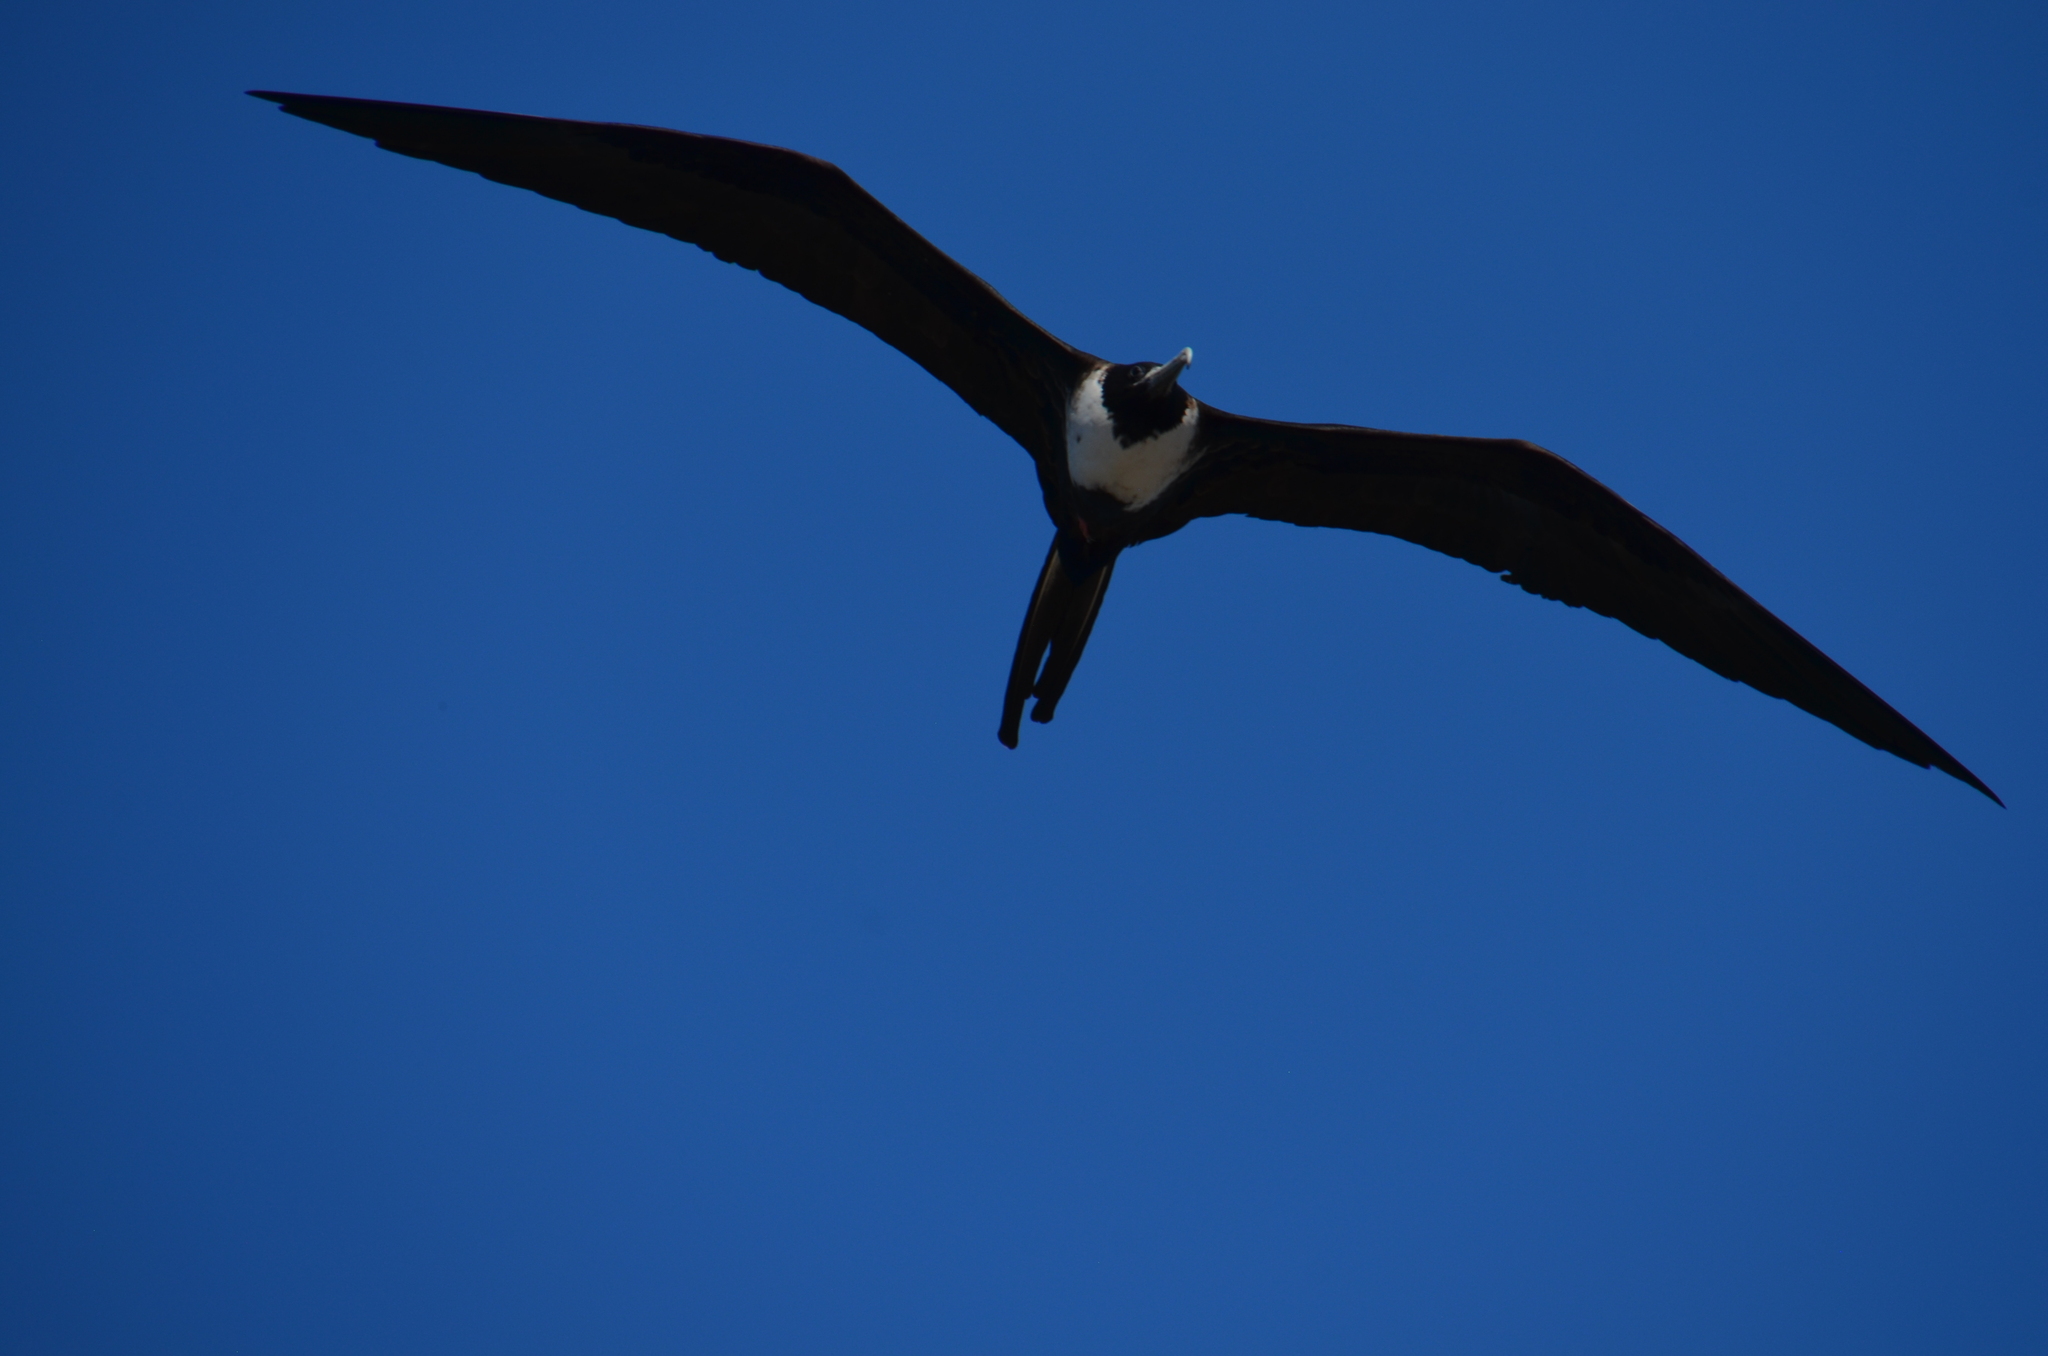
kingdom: Animalia
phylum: Chordata
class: Aves
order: Suliformes
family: Fregatidae
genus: Fregata
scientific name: Fregata magnificens
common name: Magnificent frigatebird
